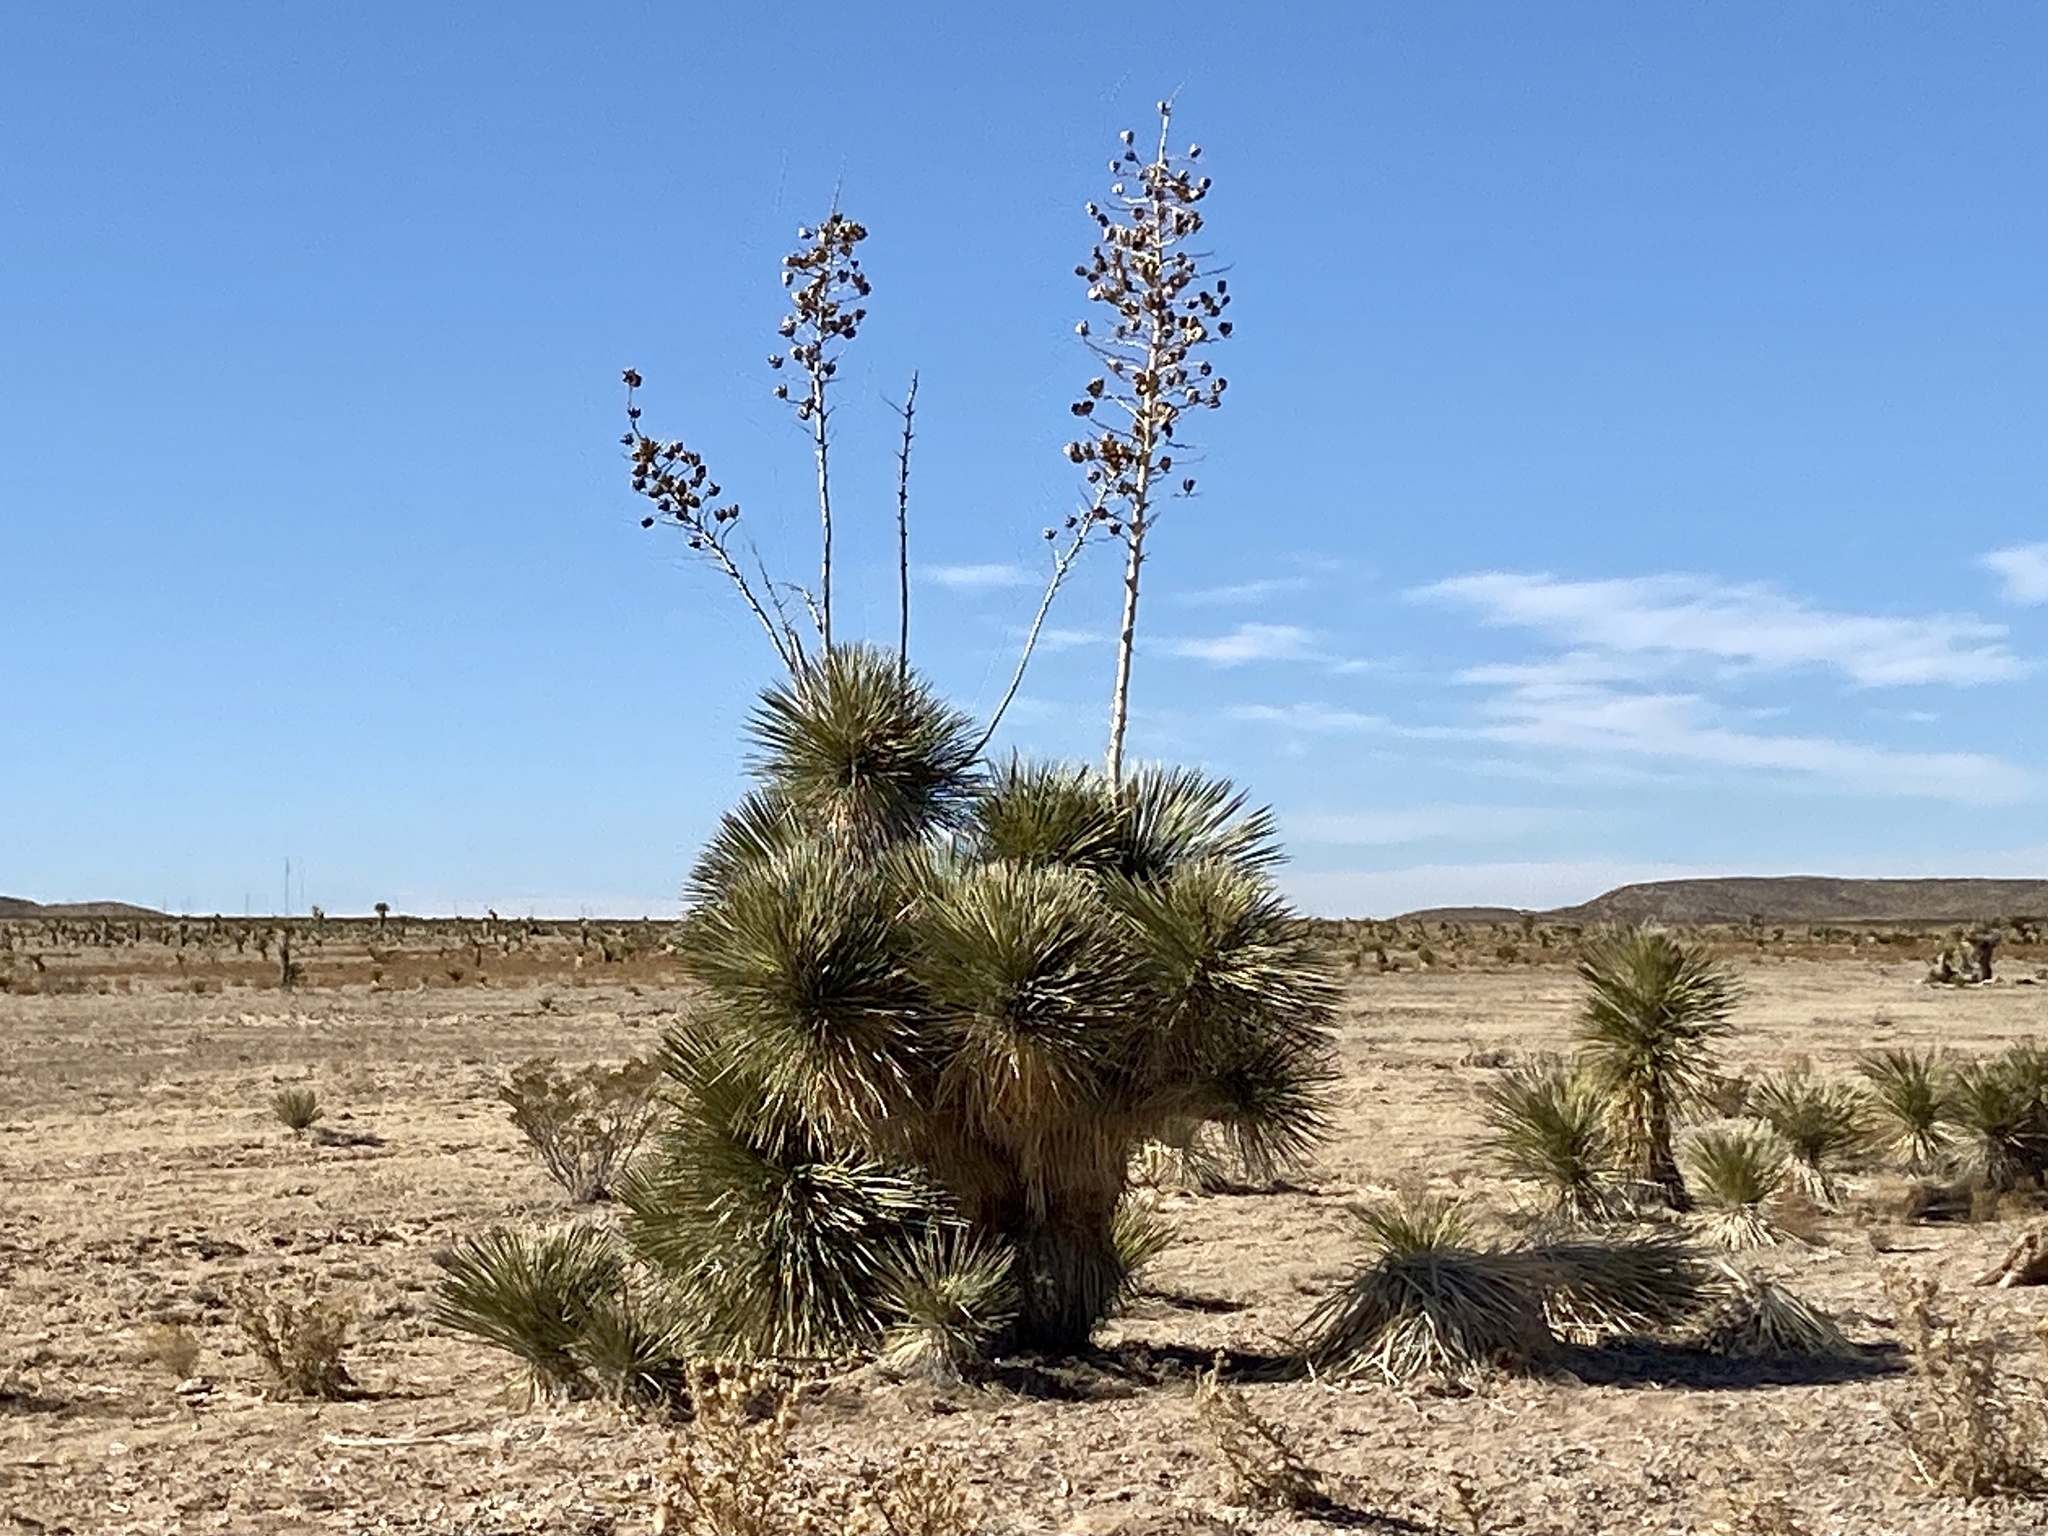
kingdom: Plantae
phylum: Tracheophyta
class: Liliopsida
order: Asparagales
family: Asparagaceae
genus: Yucca
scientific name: Yucca elata
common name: Palmella
